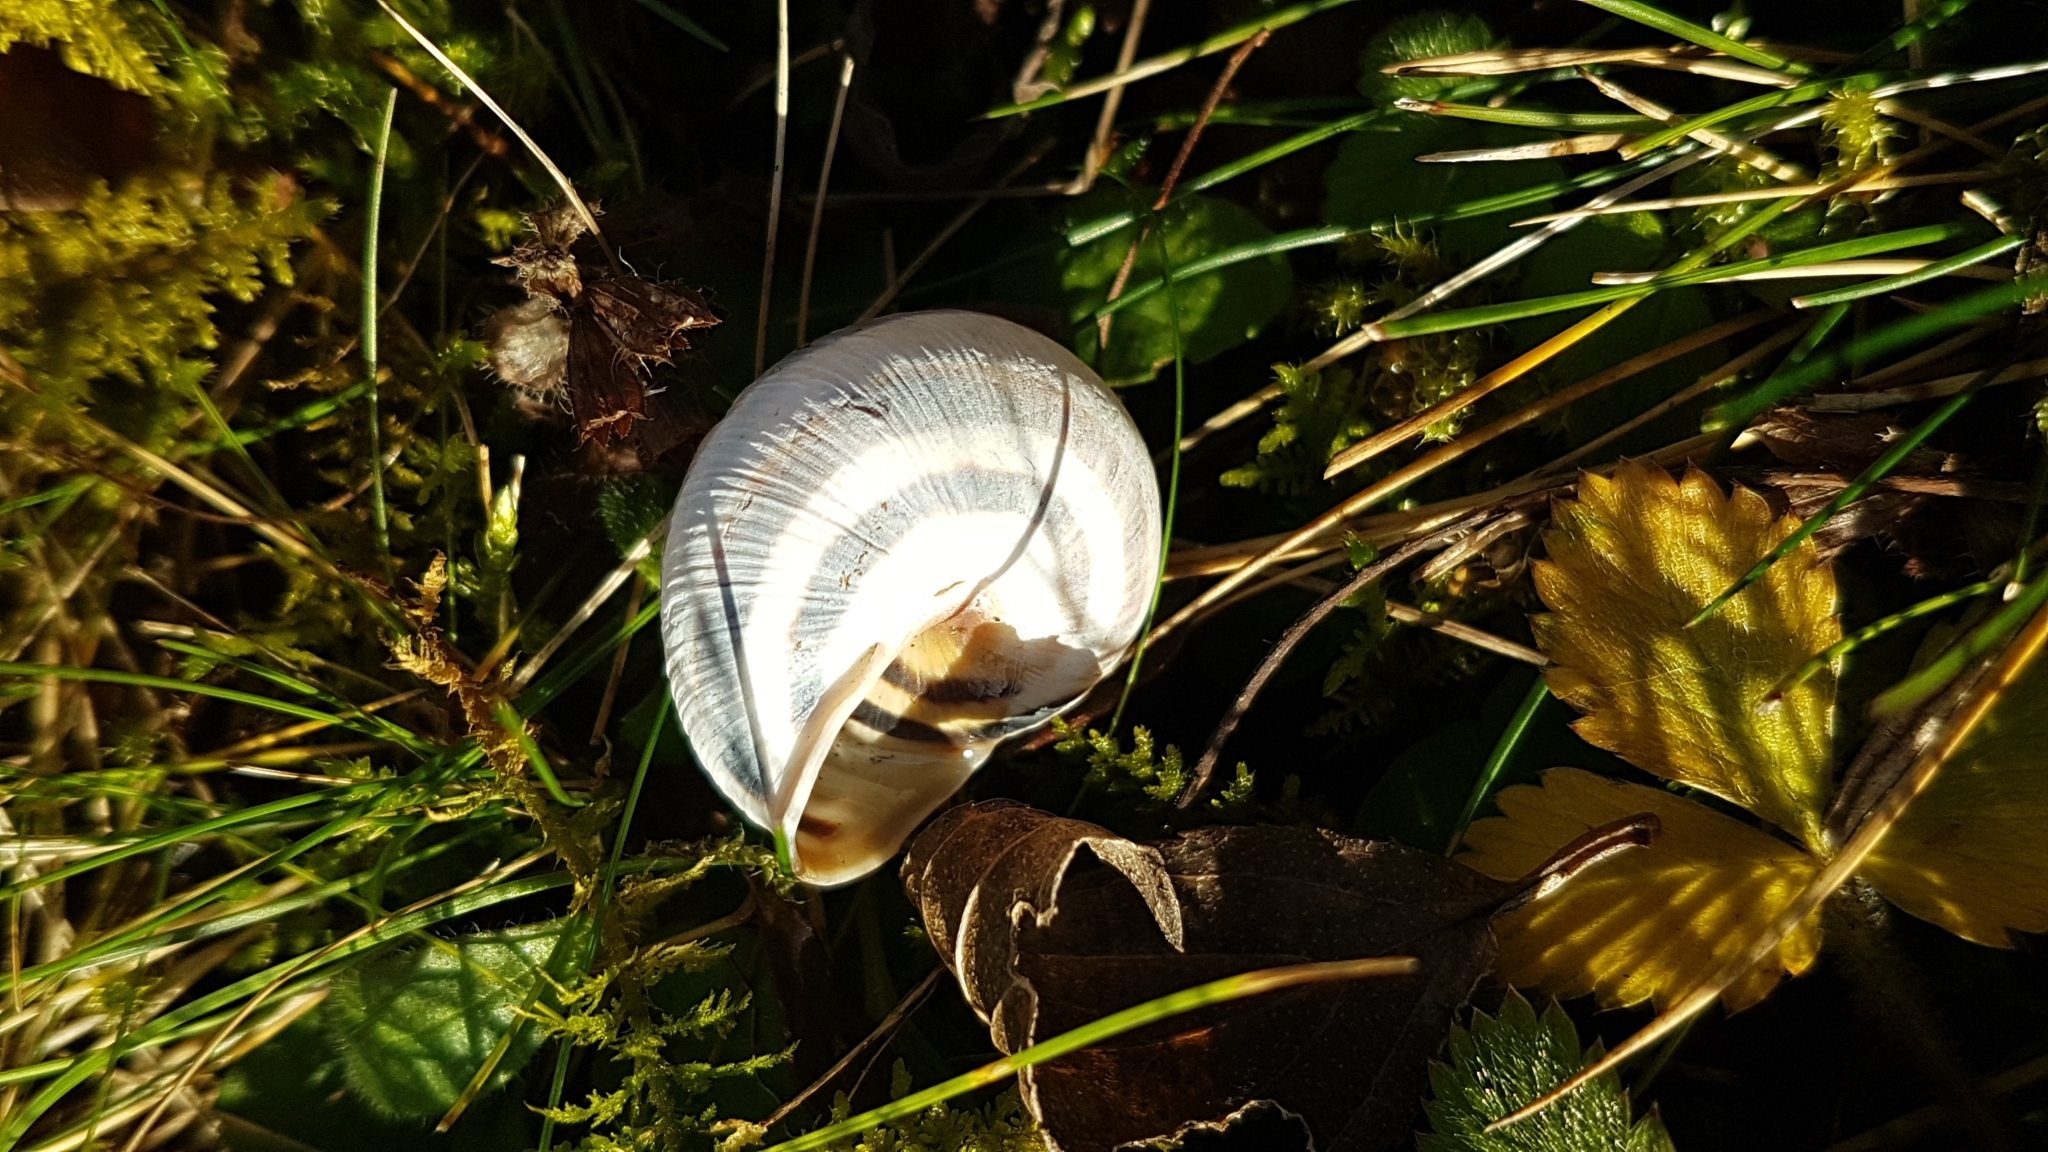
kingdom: Animalia
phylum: Mollusca
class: Gastropoda
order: Stylommatophora
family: Helicidae
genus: Caucasotachea
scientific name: Caucasotachea vindobonensis
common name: European helicid land snail
